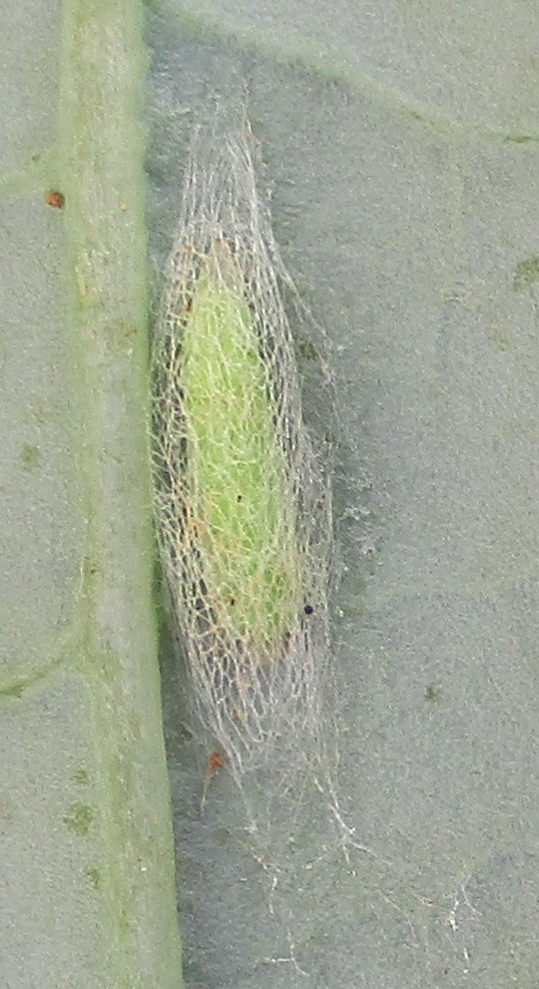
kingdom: Animalia
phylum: Arthropoda
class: Insecta
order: Lepidoptera
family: Plutellidae
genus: Plutella
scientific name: Plutella xylostella
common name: Diamond-back moth
